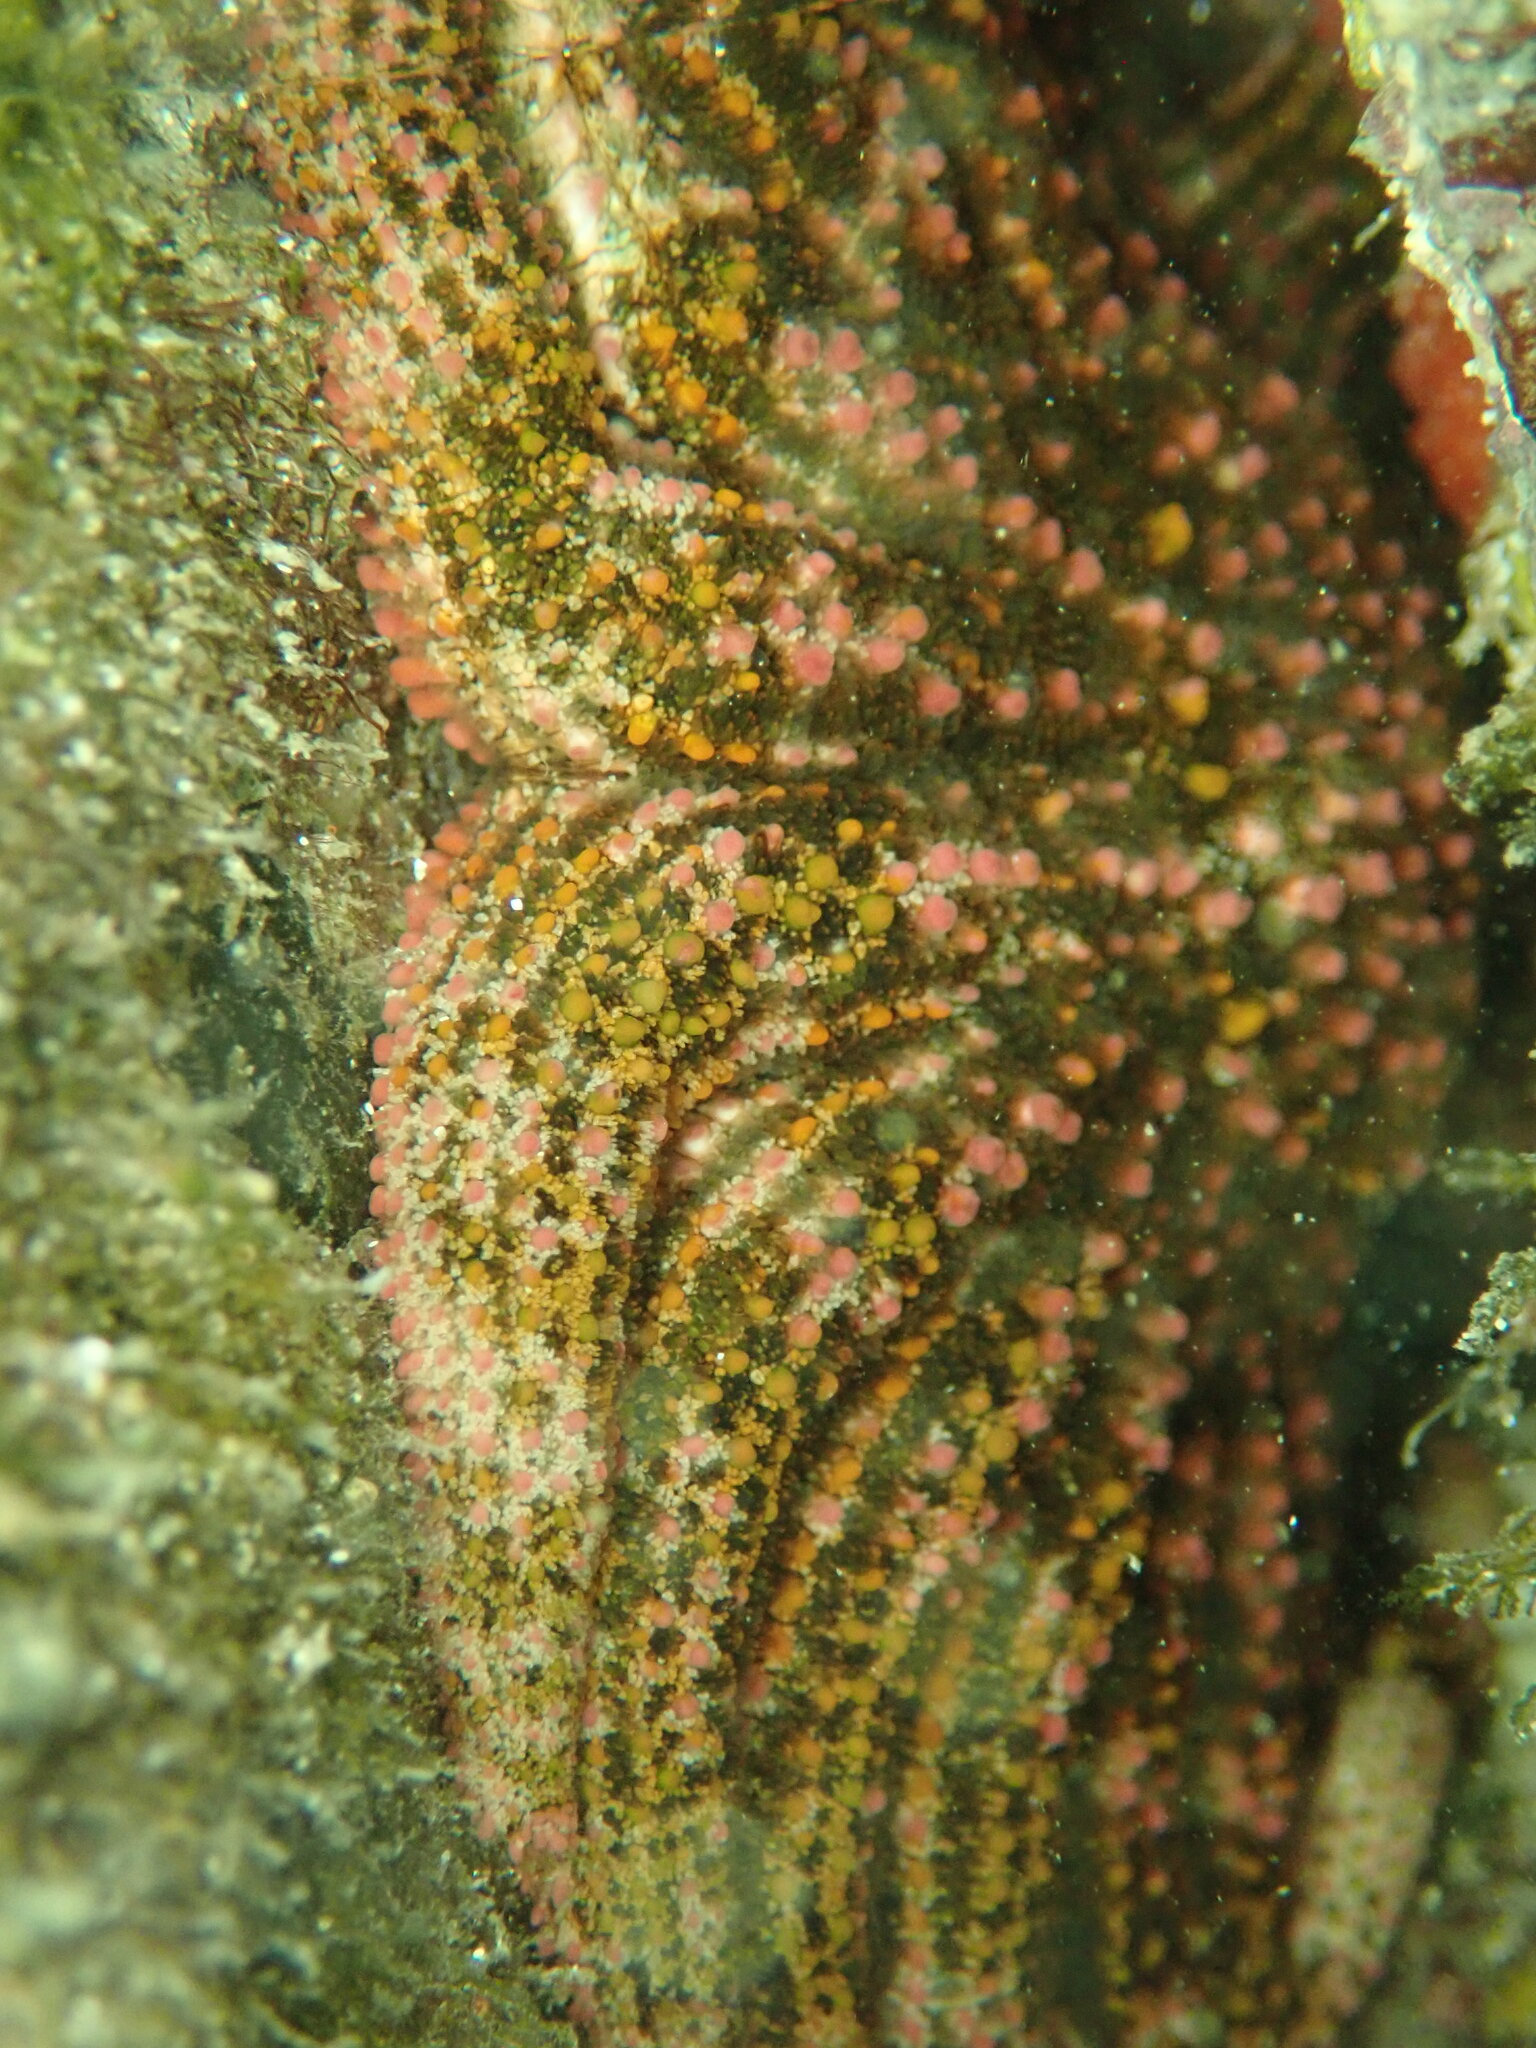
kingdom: Animalia
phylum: Echinodermata
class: Asteroidea
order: Forcipulatida
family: Heliasteridae
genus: Heliaster
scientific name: Heliaster kubiniji
